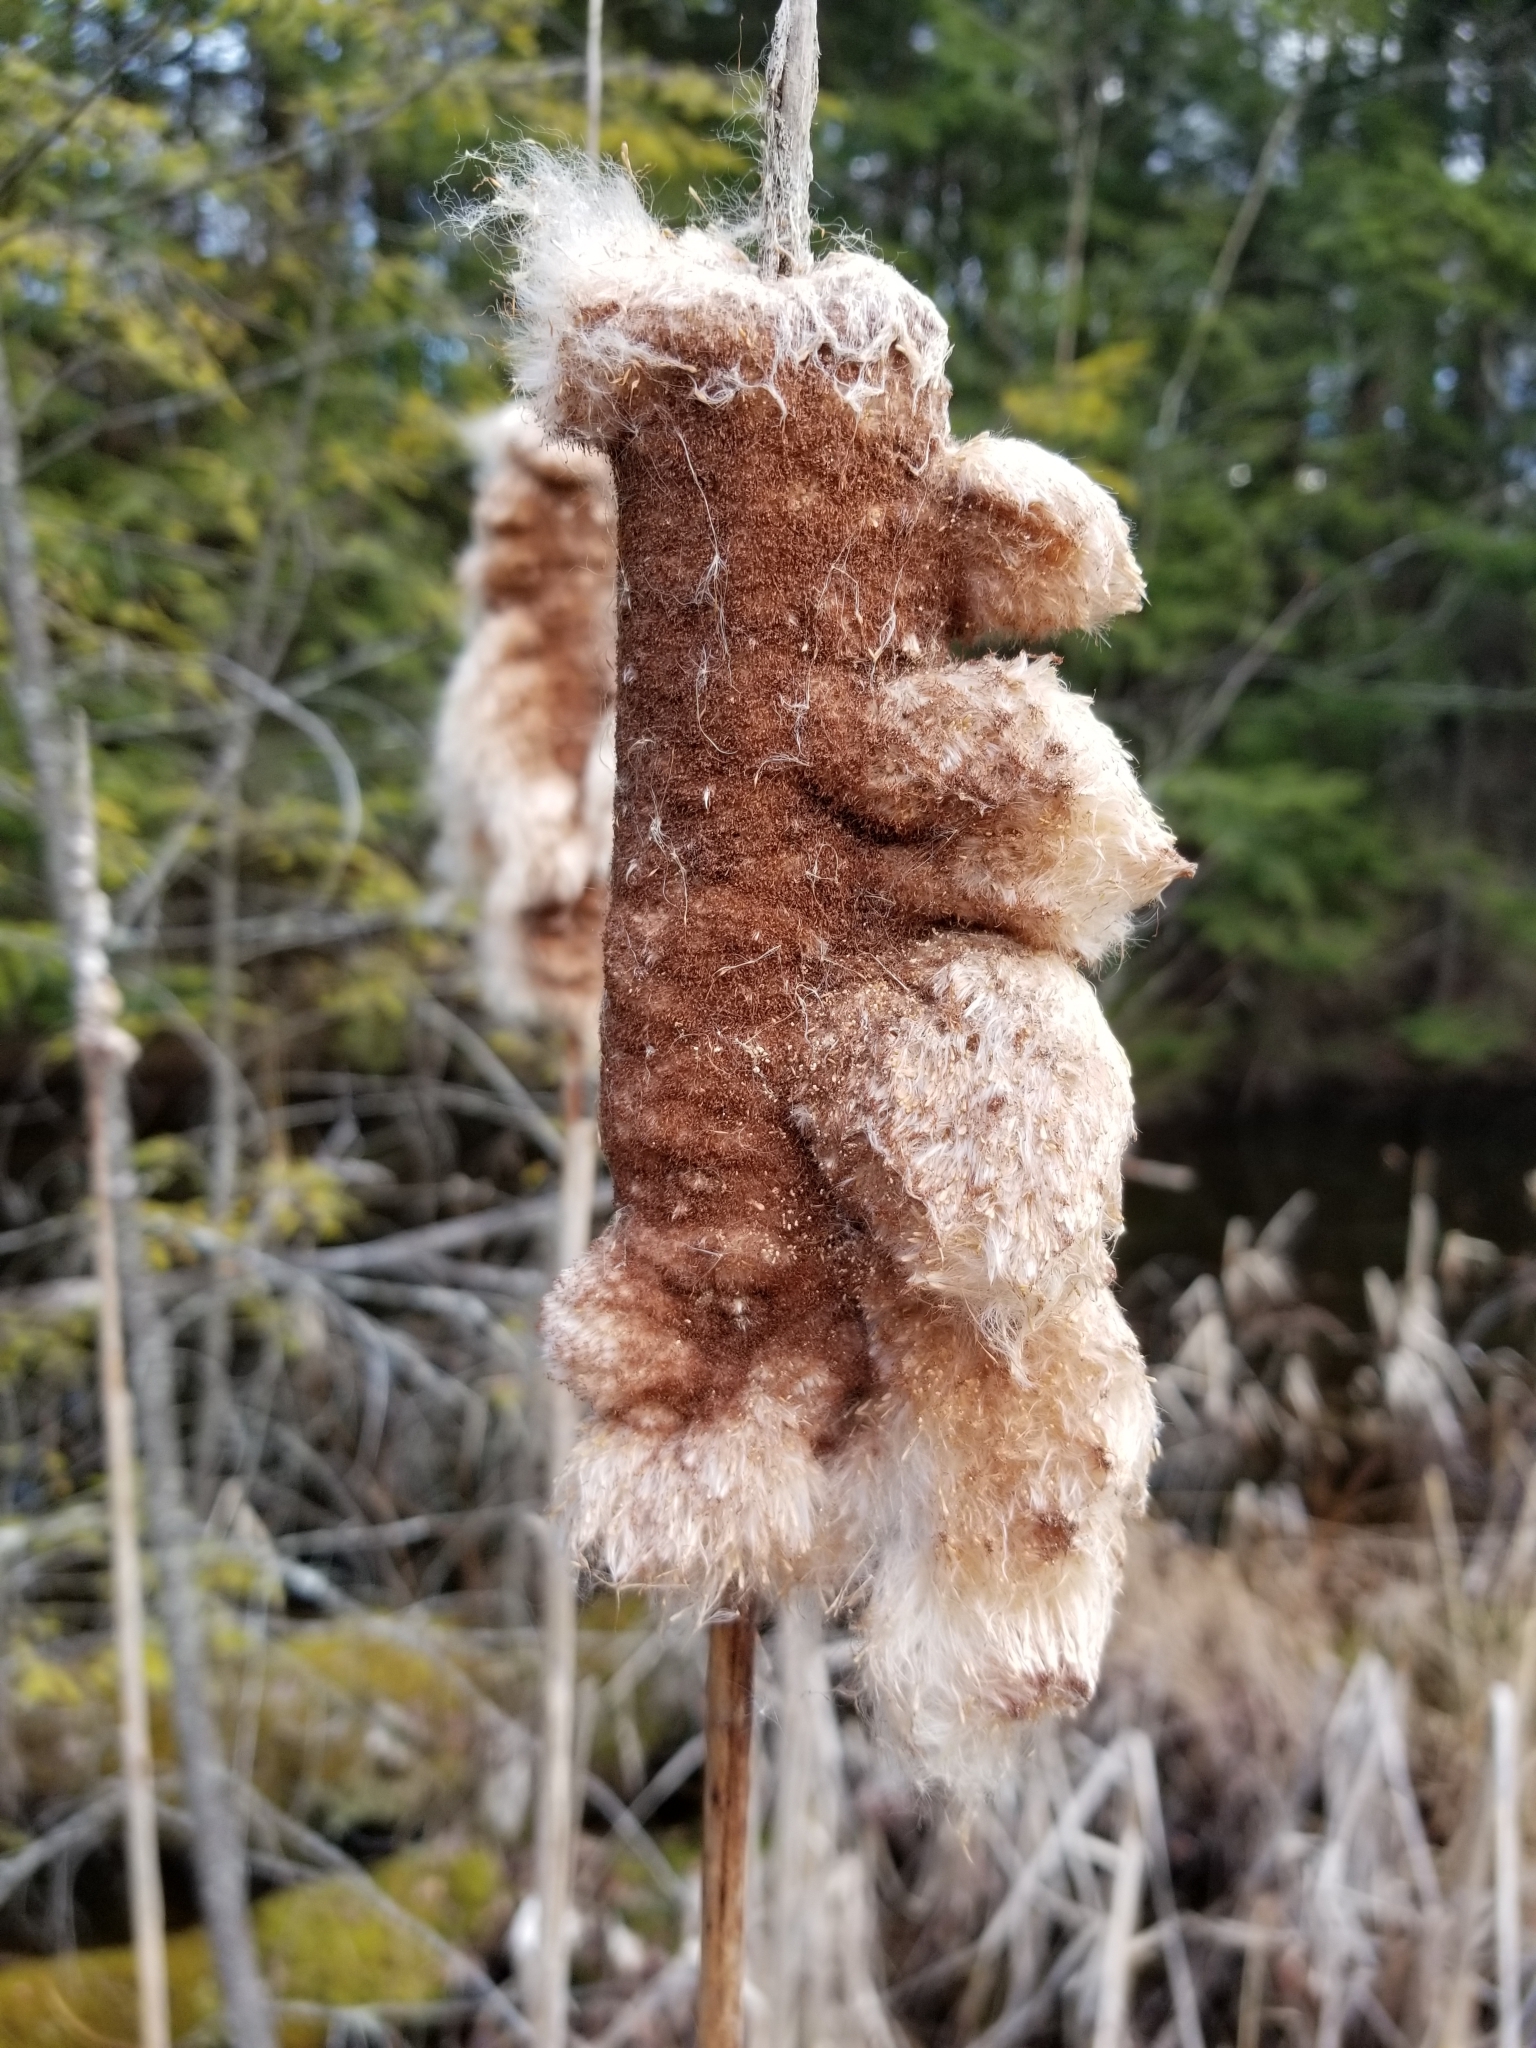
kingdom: Plantae
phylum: Tracheophyta
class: Liliopsida
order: Poales
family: Typhaceae
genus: Typha
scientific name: Typha latifolia
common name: Broadleaf cattail
